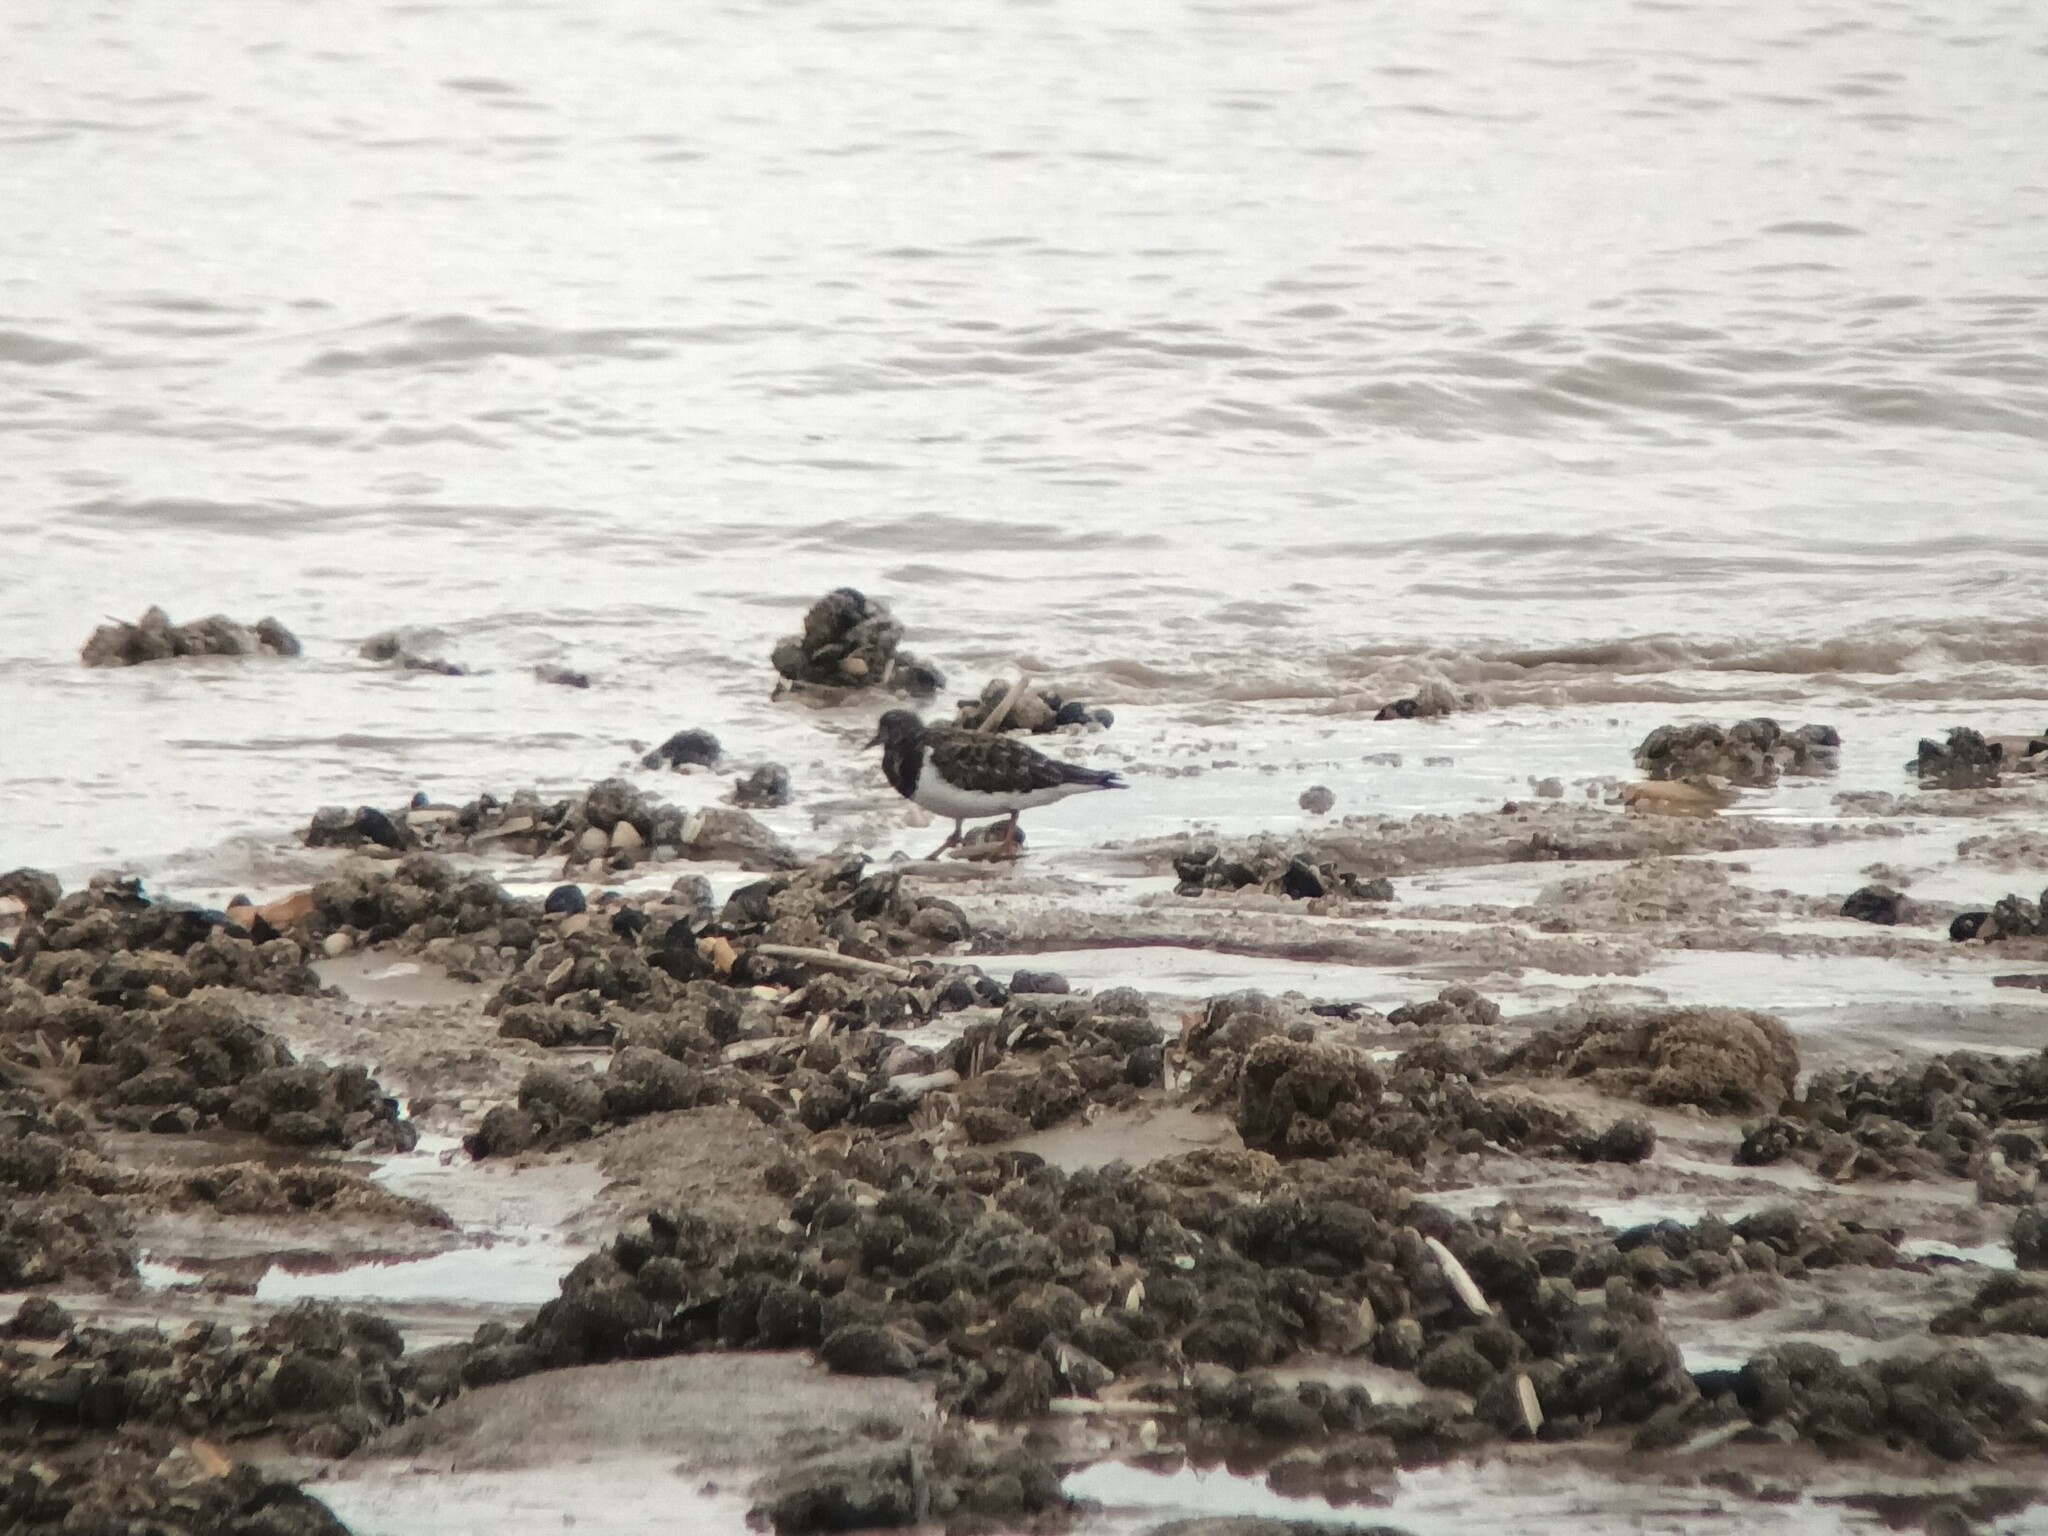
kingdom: Animalia
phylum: Chordata
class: Aves
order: Charadriiformes
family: Scolopacidae
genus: Arenaria
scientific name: Arenaria interpres
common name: Ruddy turnstone
